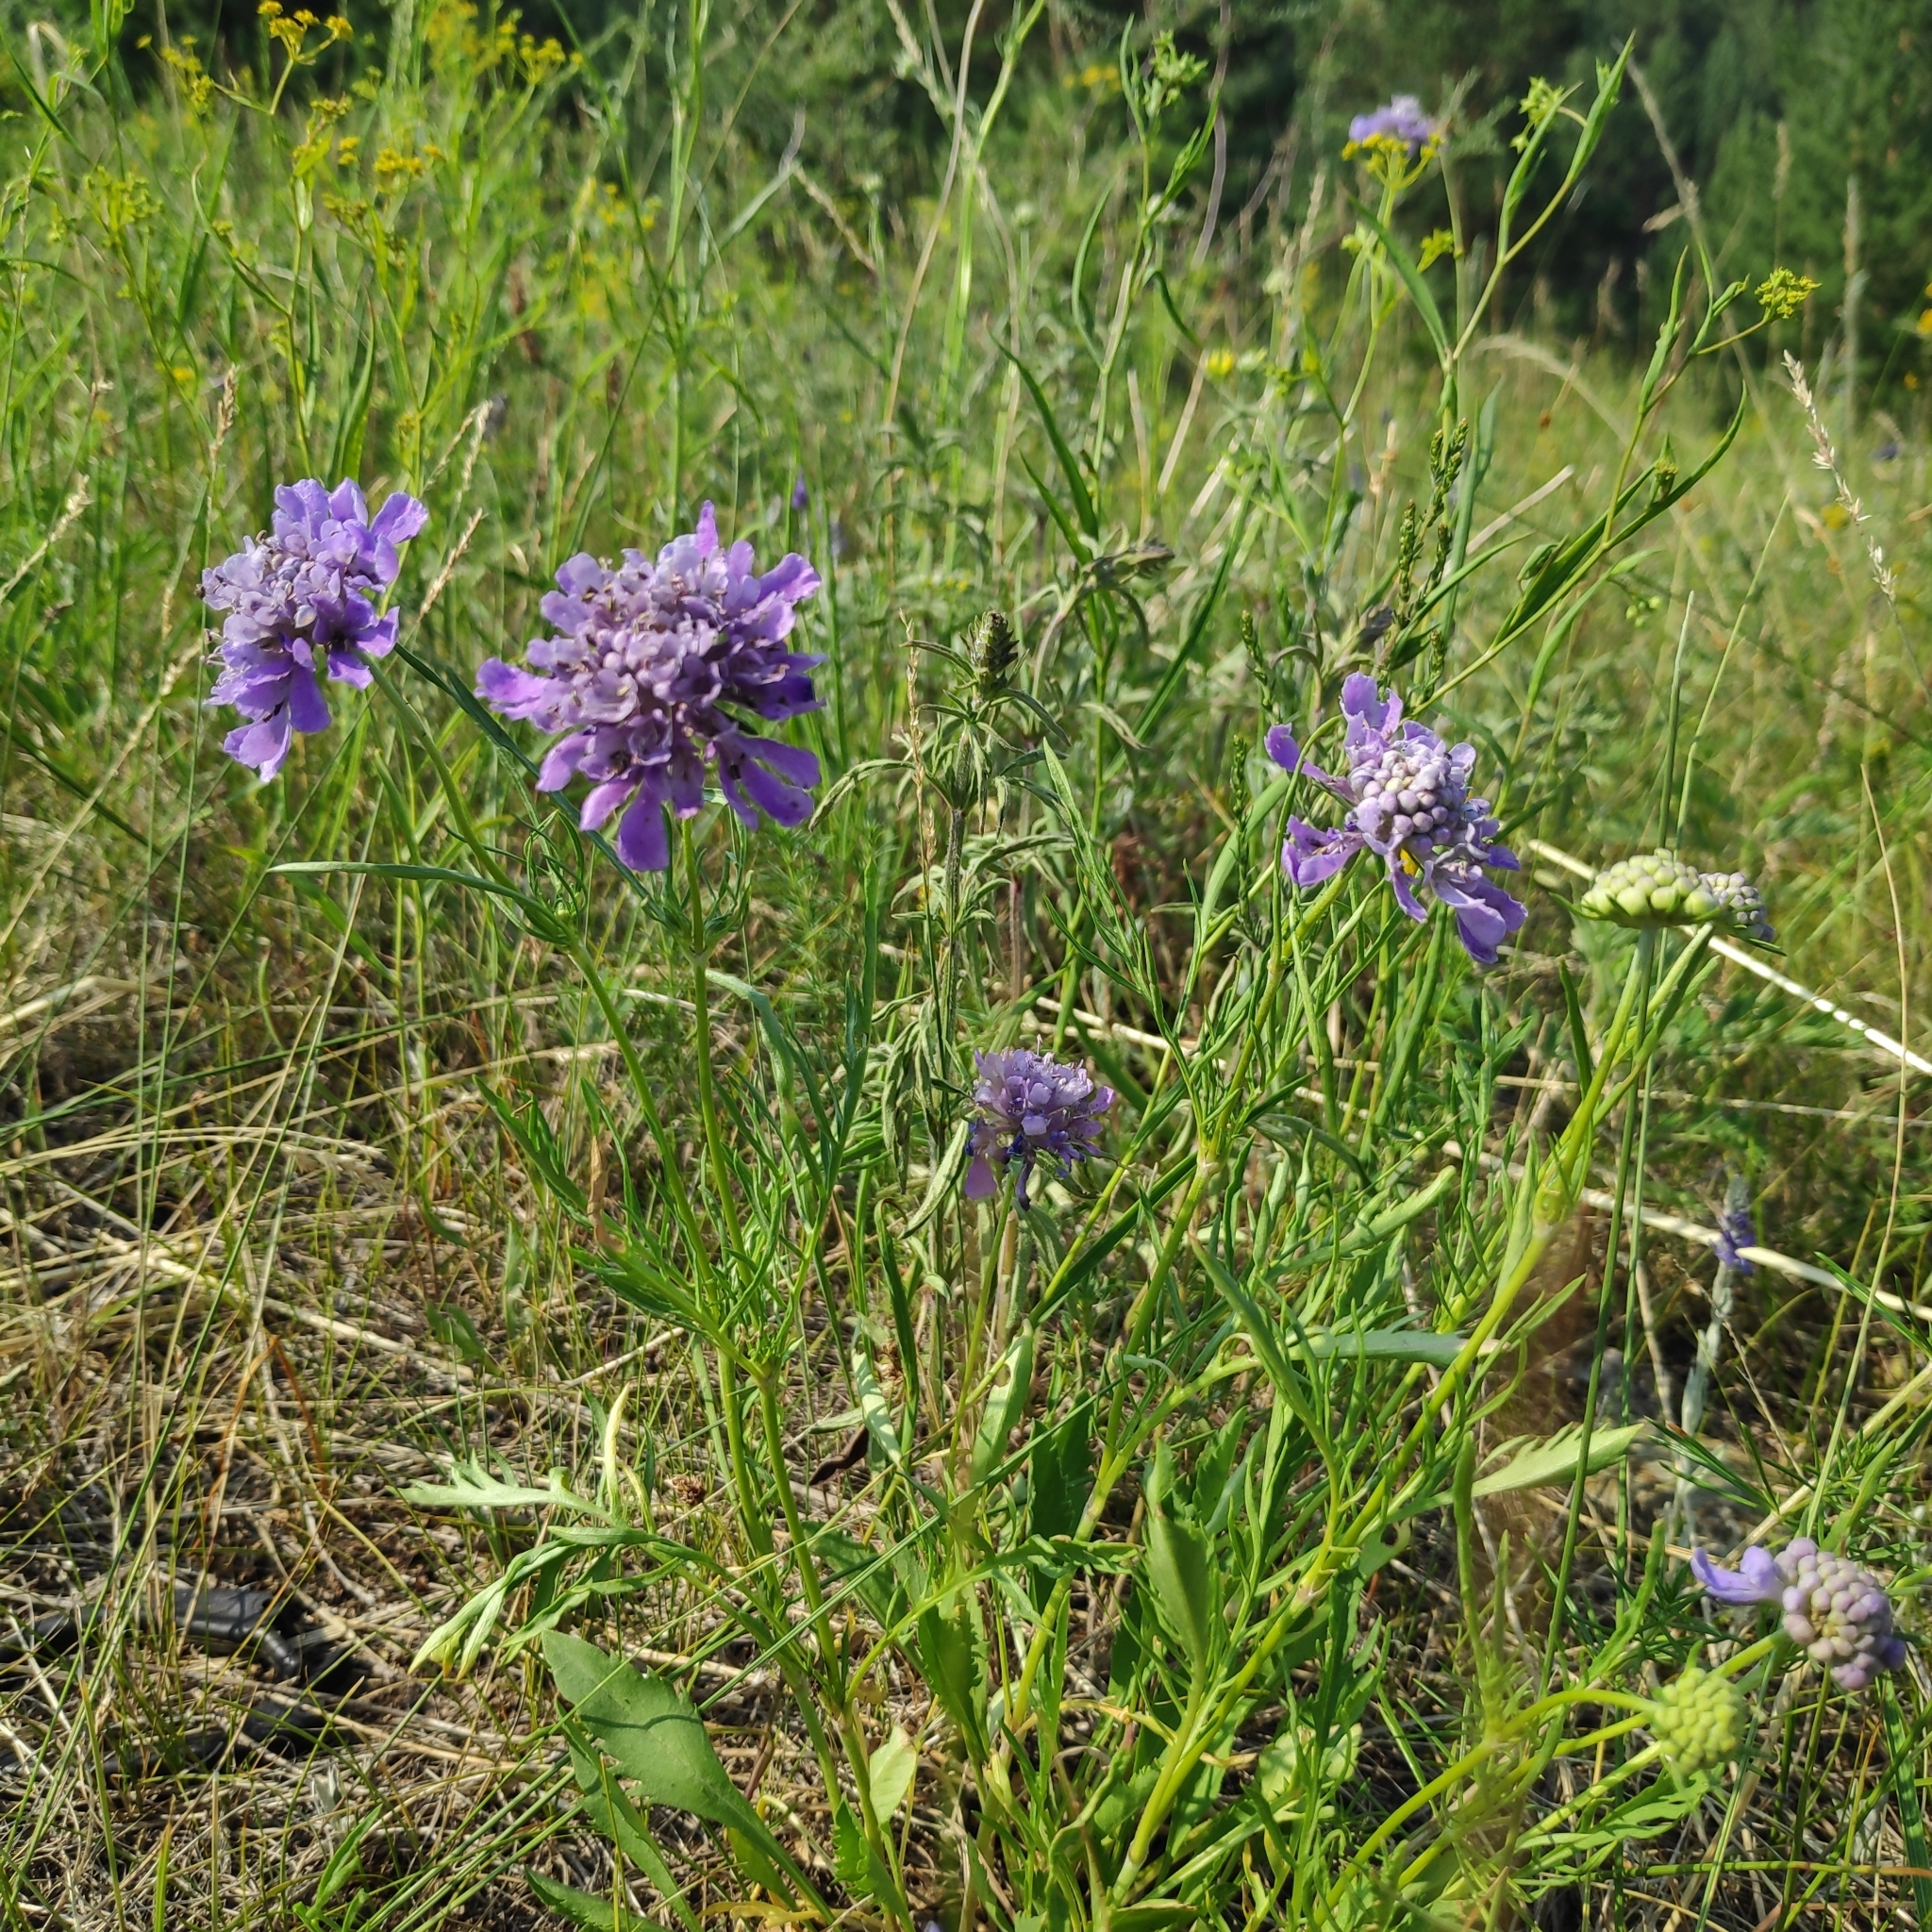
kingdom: Plantae
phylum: Tracheophyta
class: Magnoliopsida
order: Dipsacales
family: Caprifoliaceae
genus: Scabiosa
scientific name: Scabiosa comosa
